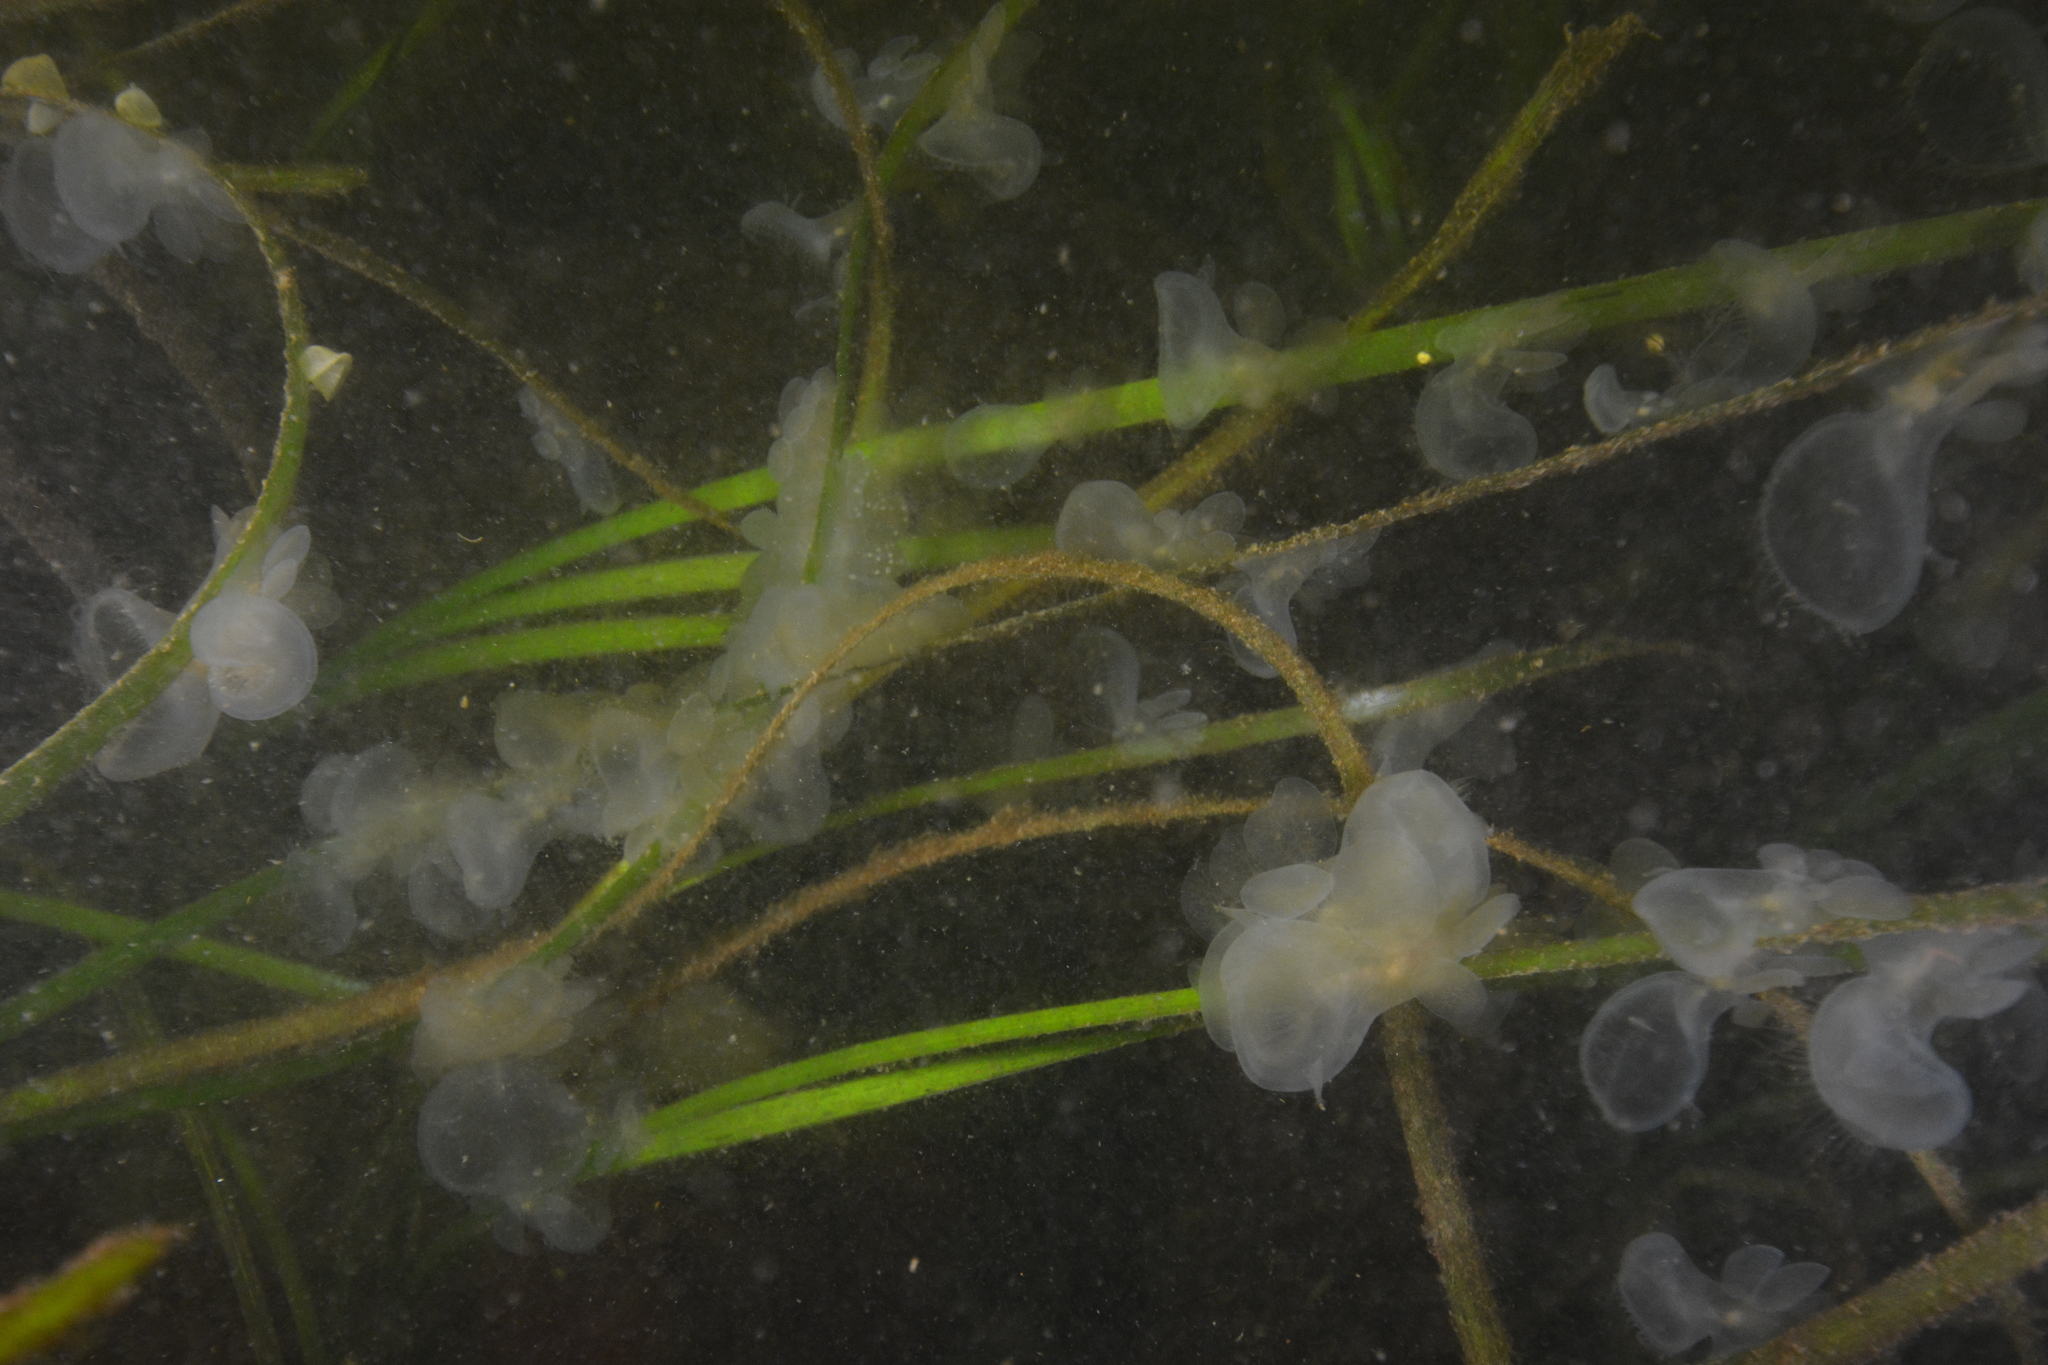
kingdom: Animalia
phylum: Mollusca
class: Gastropoda
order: Nudibranchia
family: Tethydidae
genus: Melibe
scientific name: Melibe leonina
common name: Lion nudibranch
